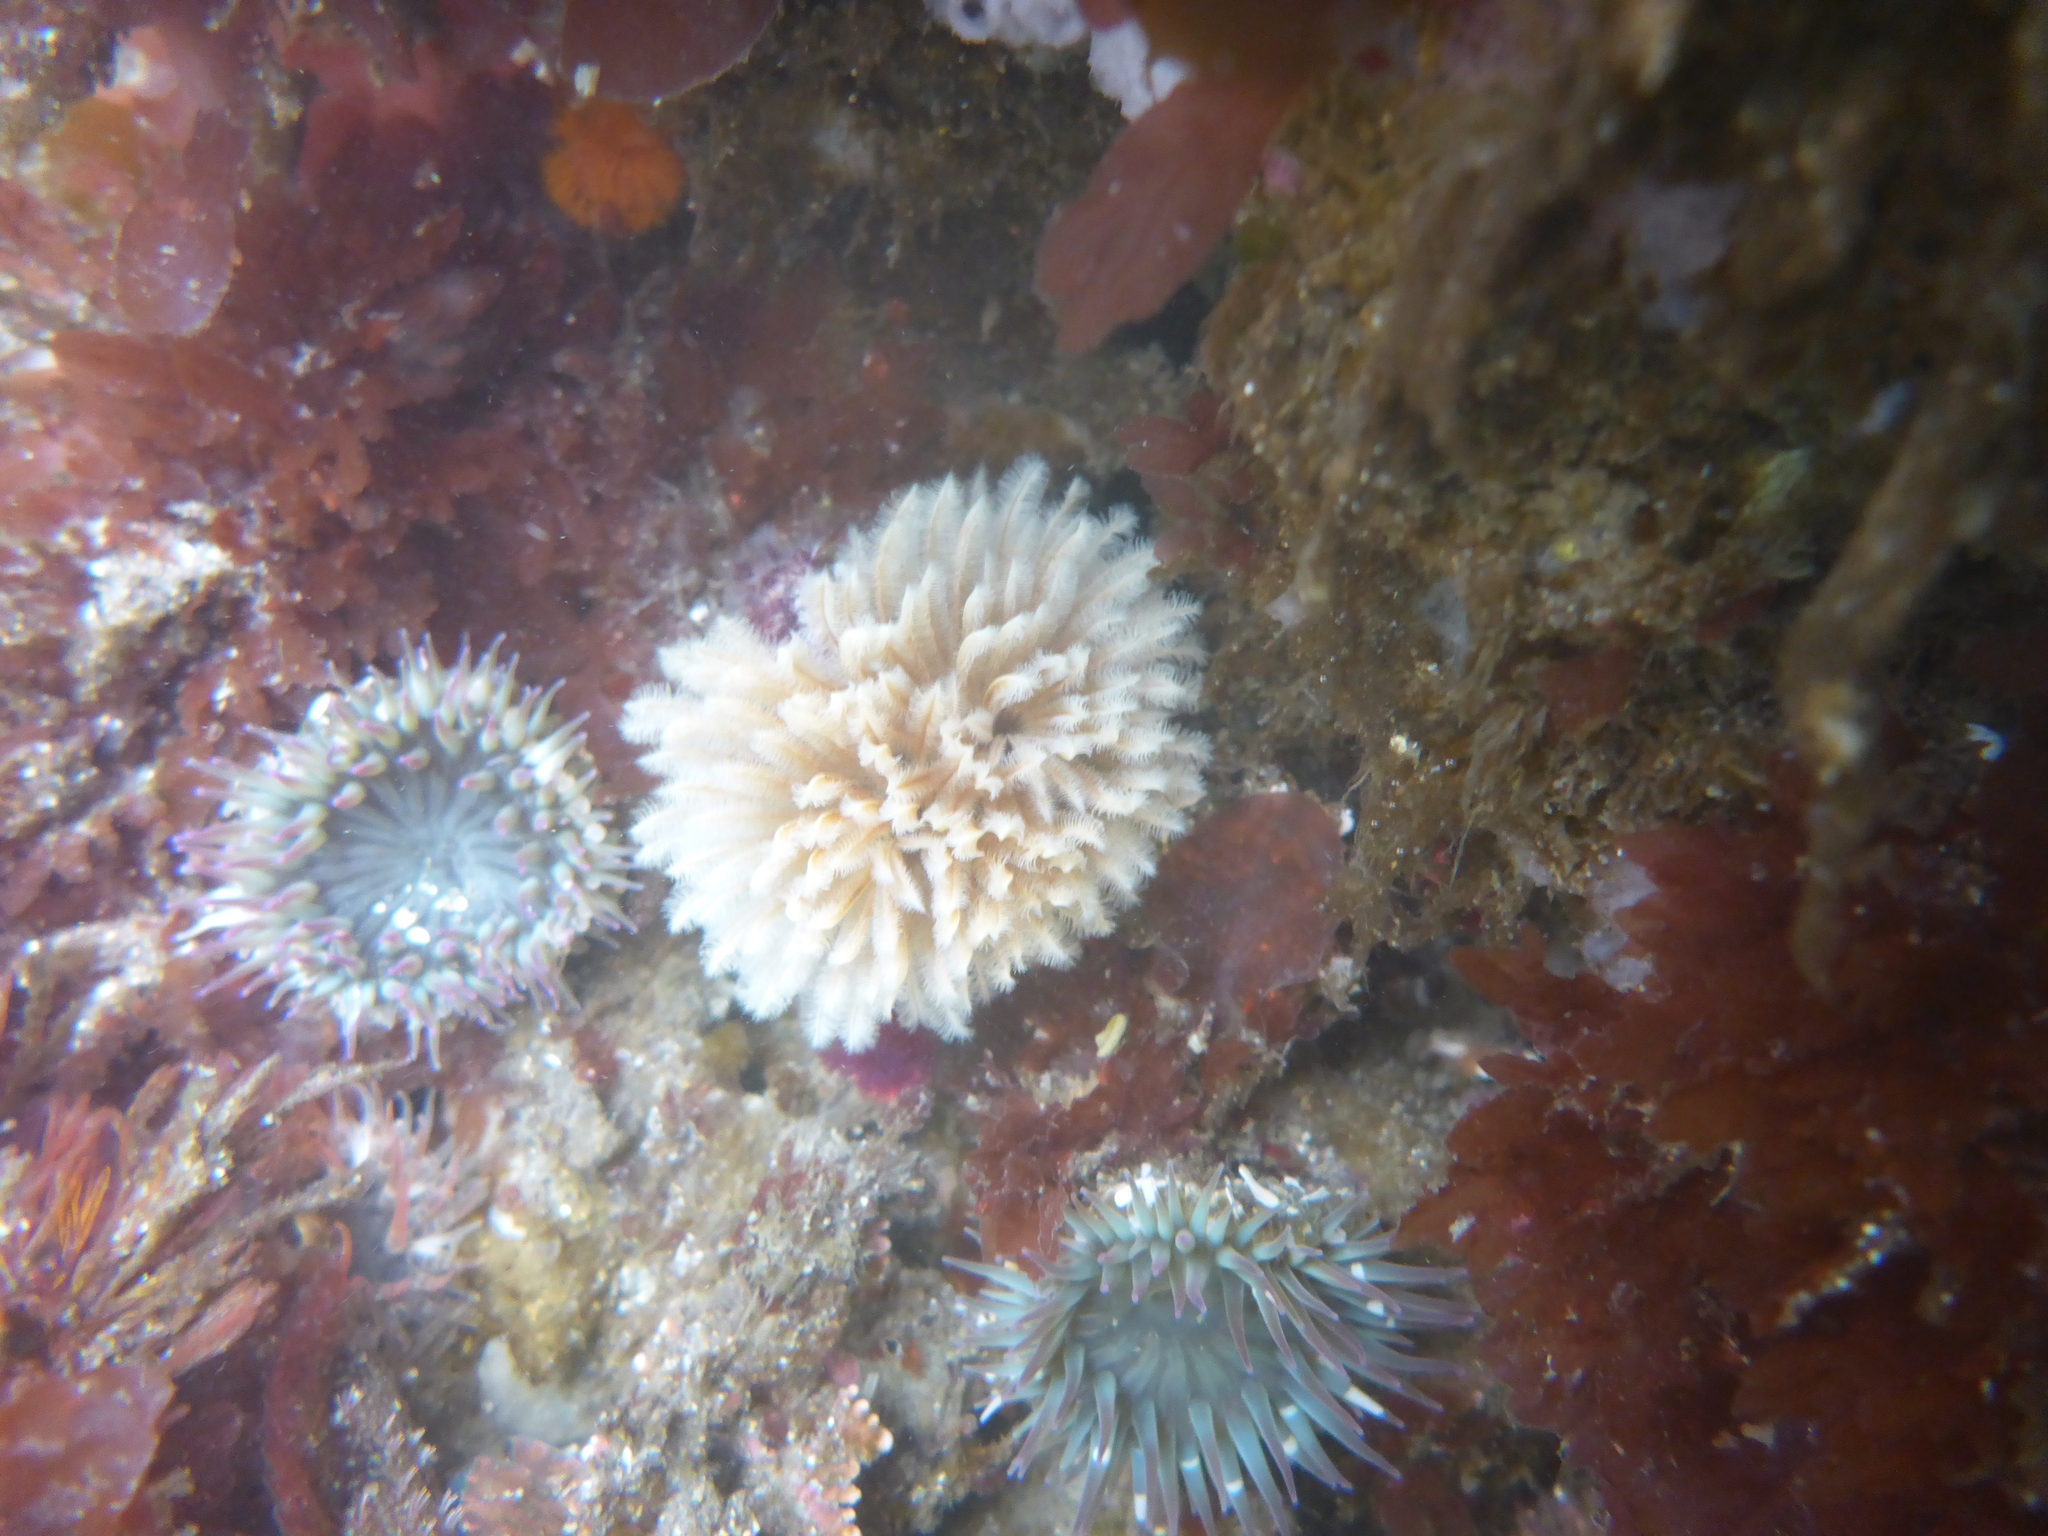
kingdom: Animalia
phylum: Annelida
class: Polychaeta
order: Sabellida
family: Sabellidae
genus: Eudistylia
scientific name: Eudistylia polymorpha
